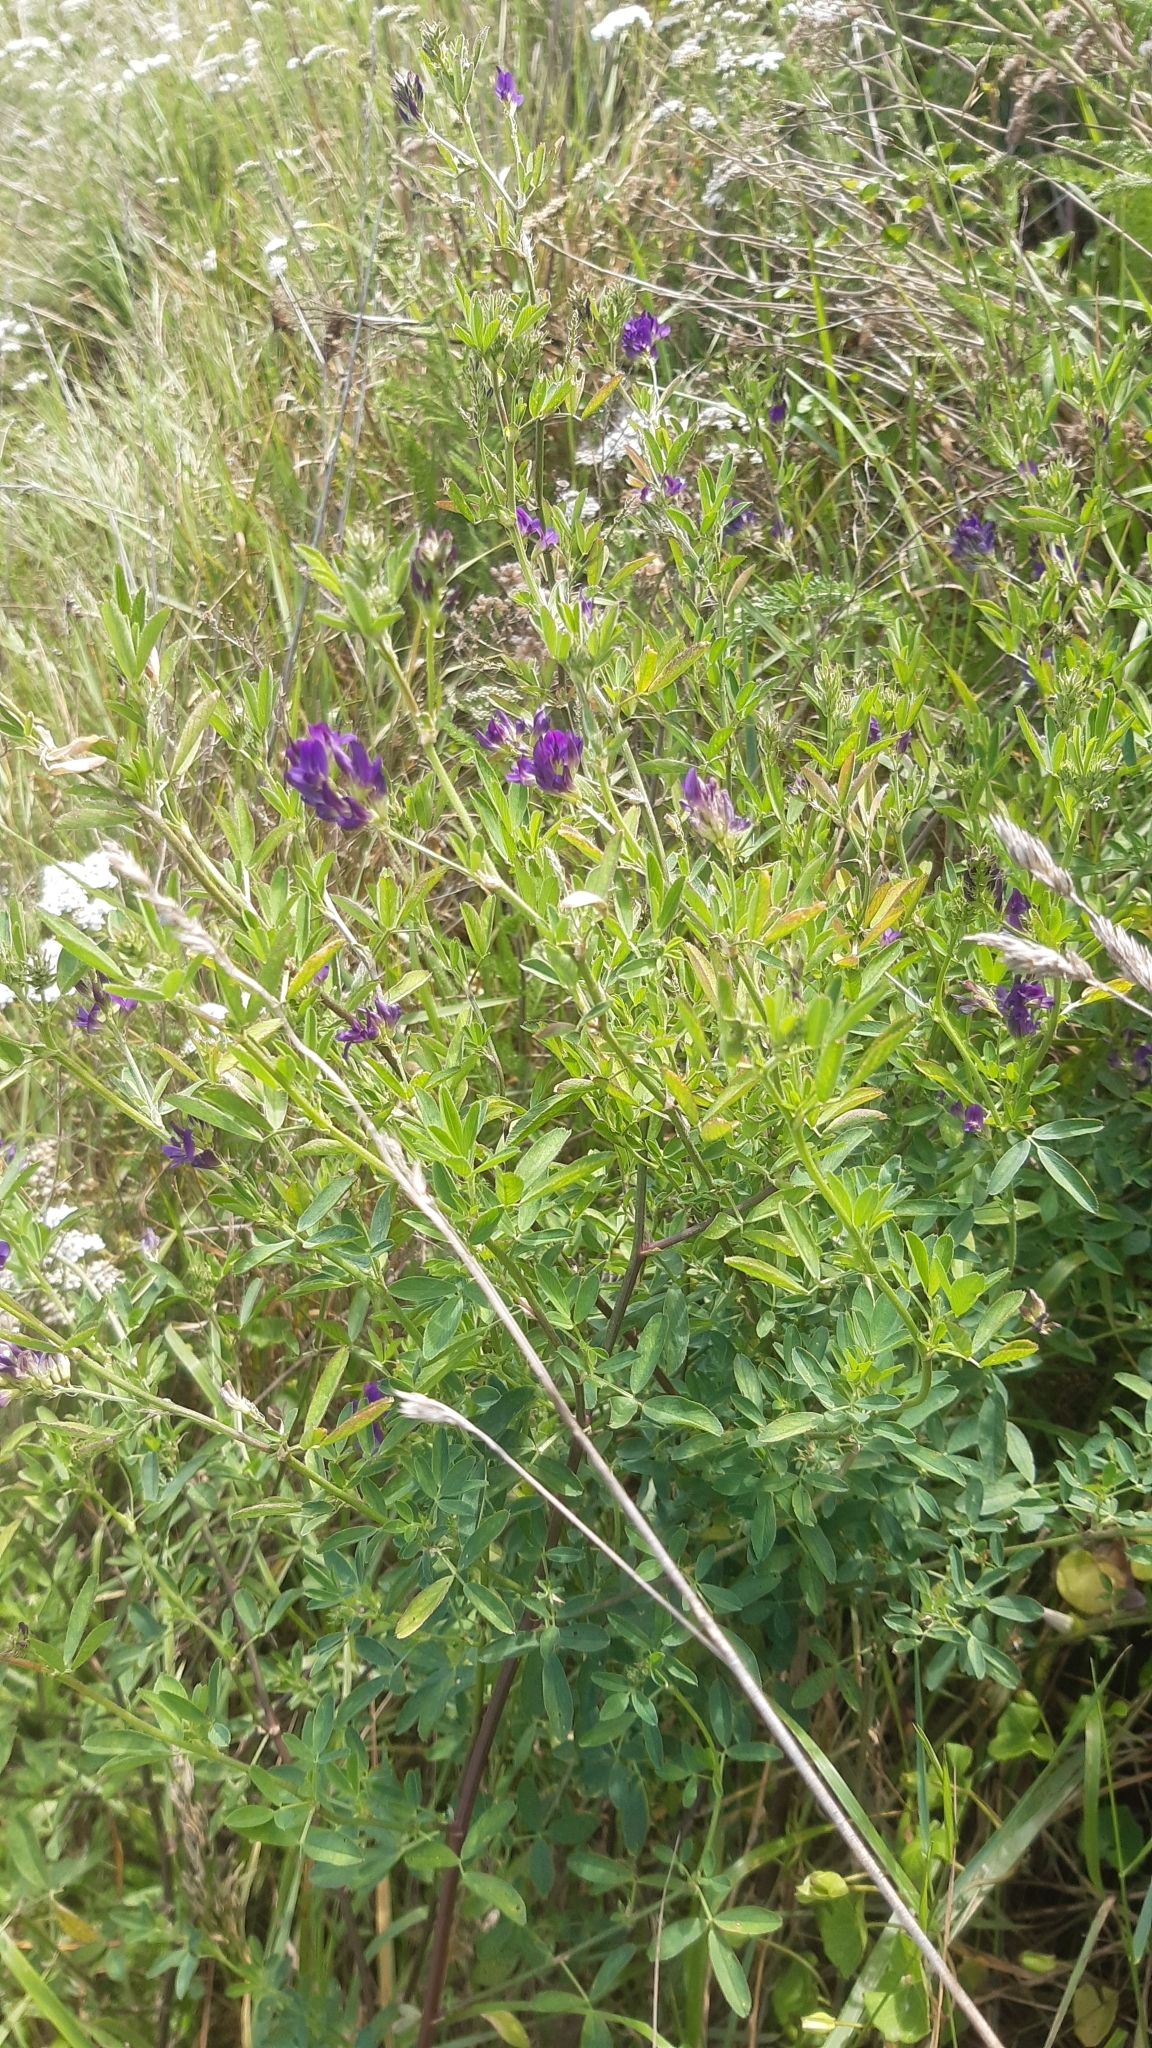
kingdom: Plantae
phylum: Tracheophyta
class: Magnoliopsida
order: Fabales
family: Fabaceae
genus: Medicago
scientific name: Medicago sativa
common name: Alfalfa
